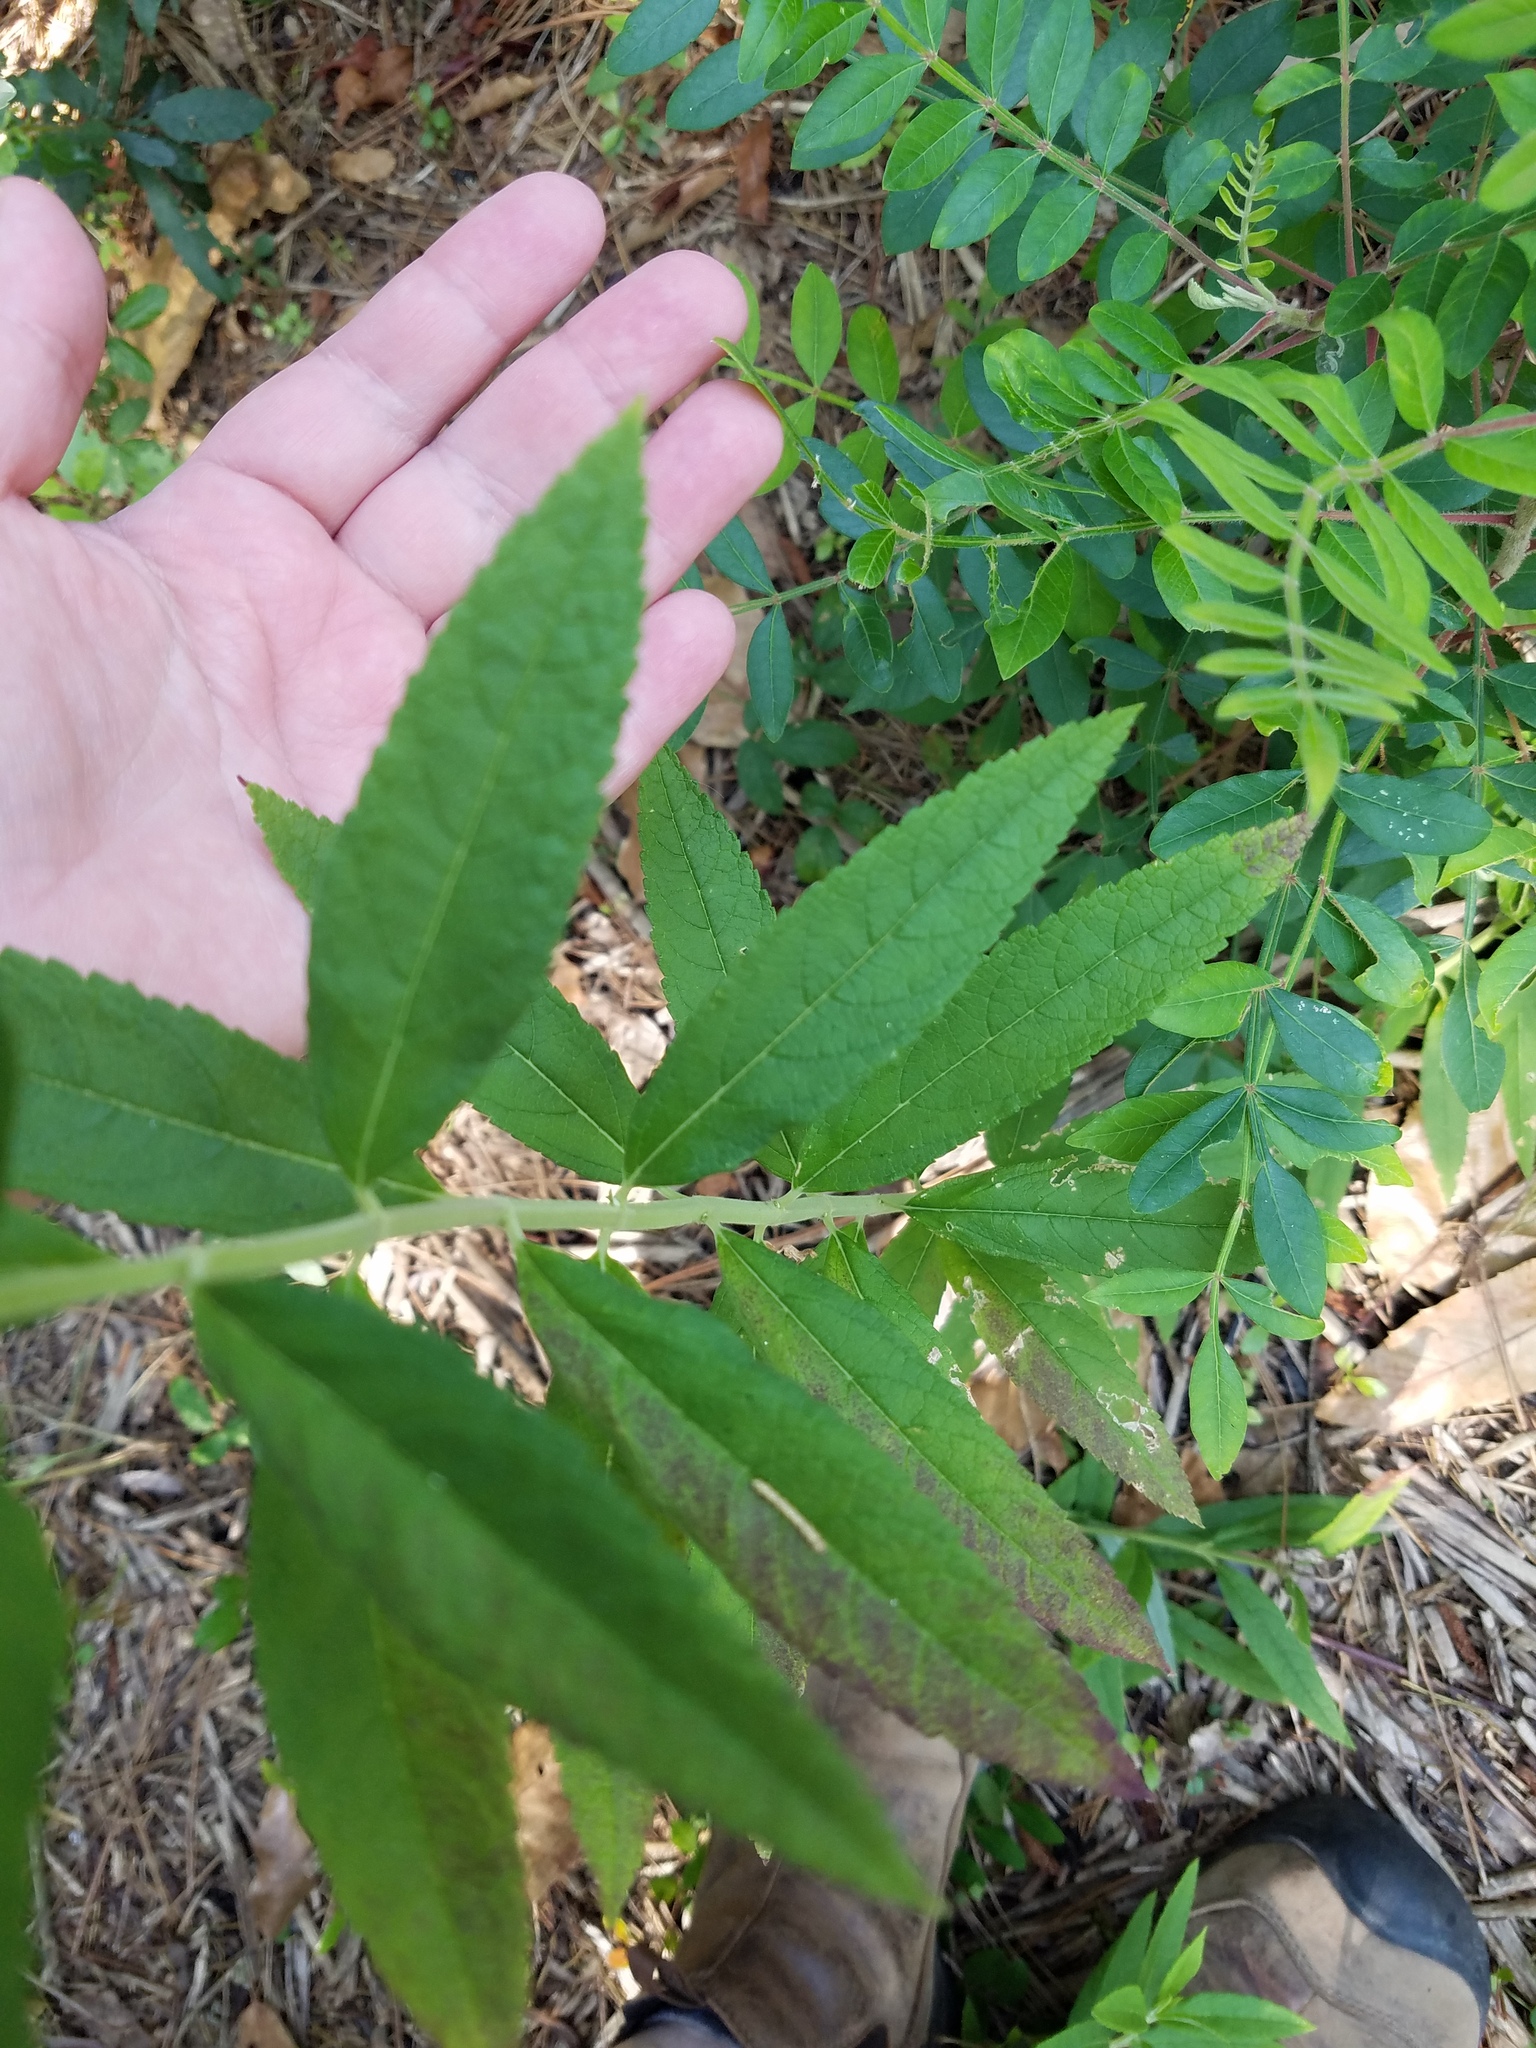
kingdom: Plantae
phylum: Tracheophyta
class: Magnoliopsida
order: Lamiales
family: Lamiaceae
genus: Teucrium
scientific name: Teucrium canadense
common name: American germander
